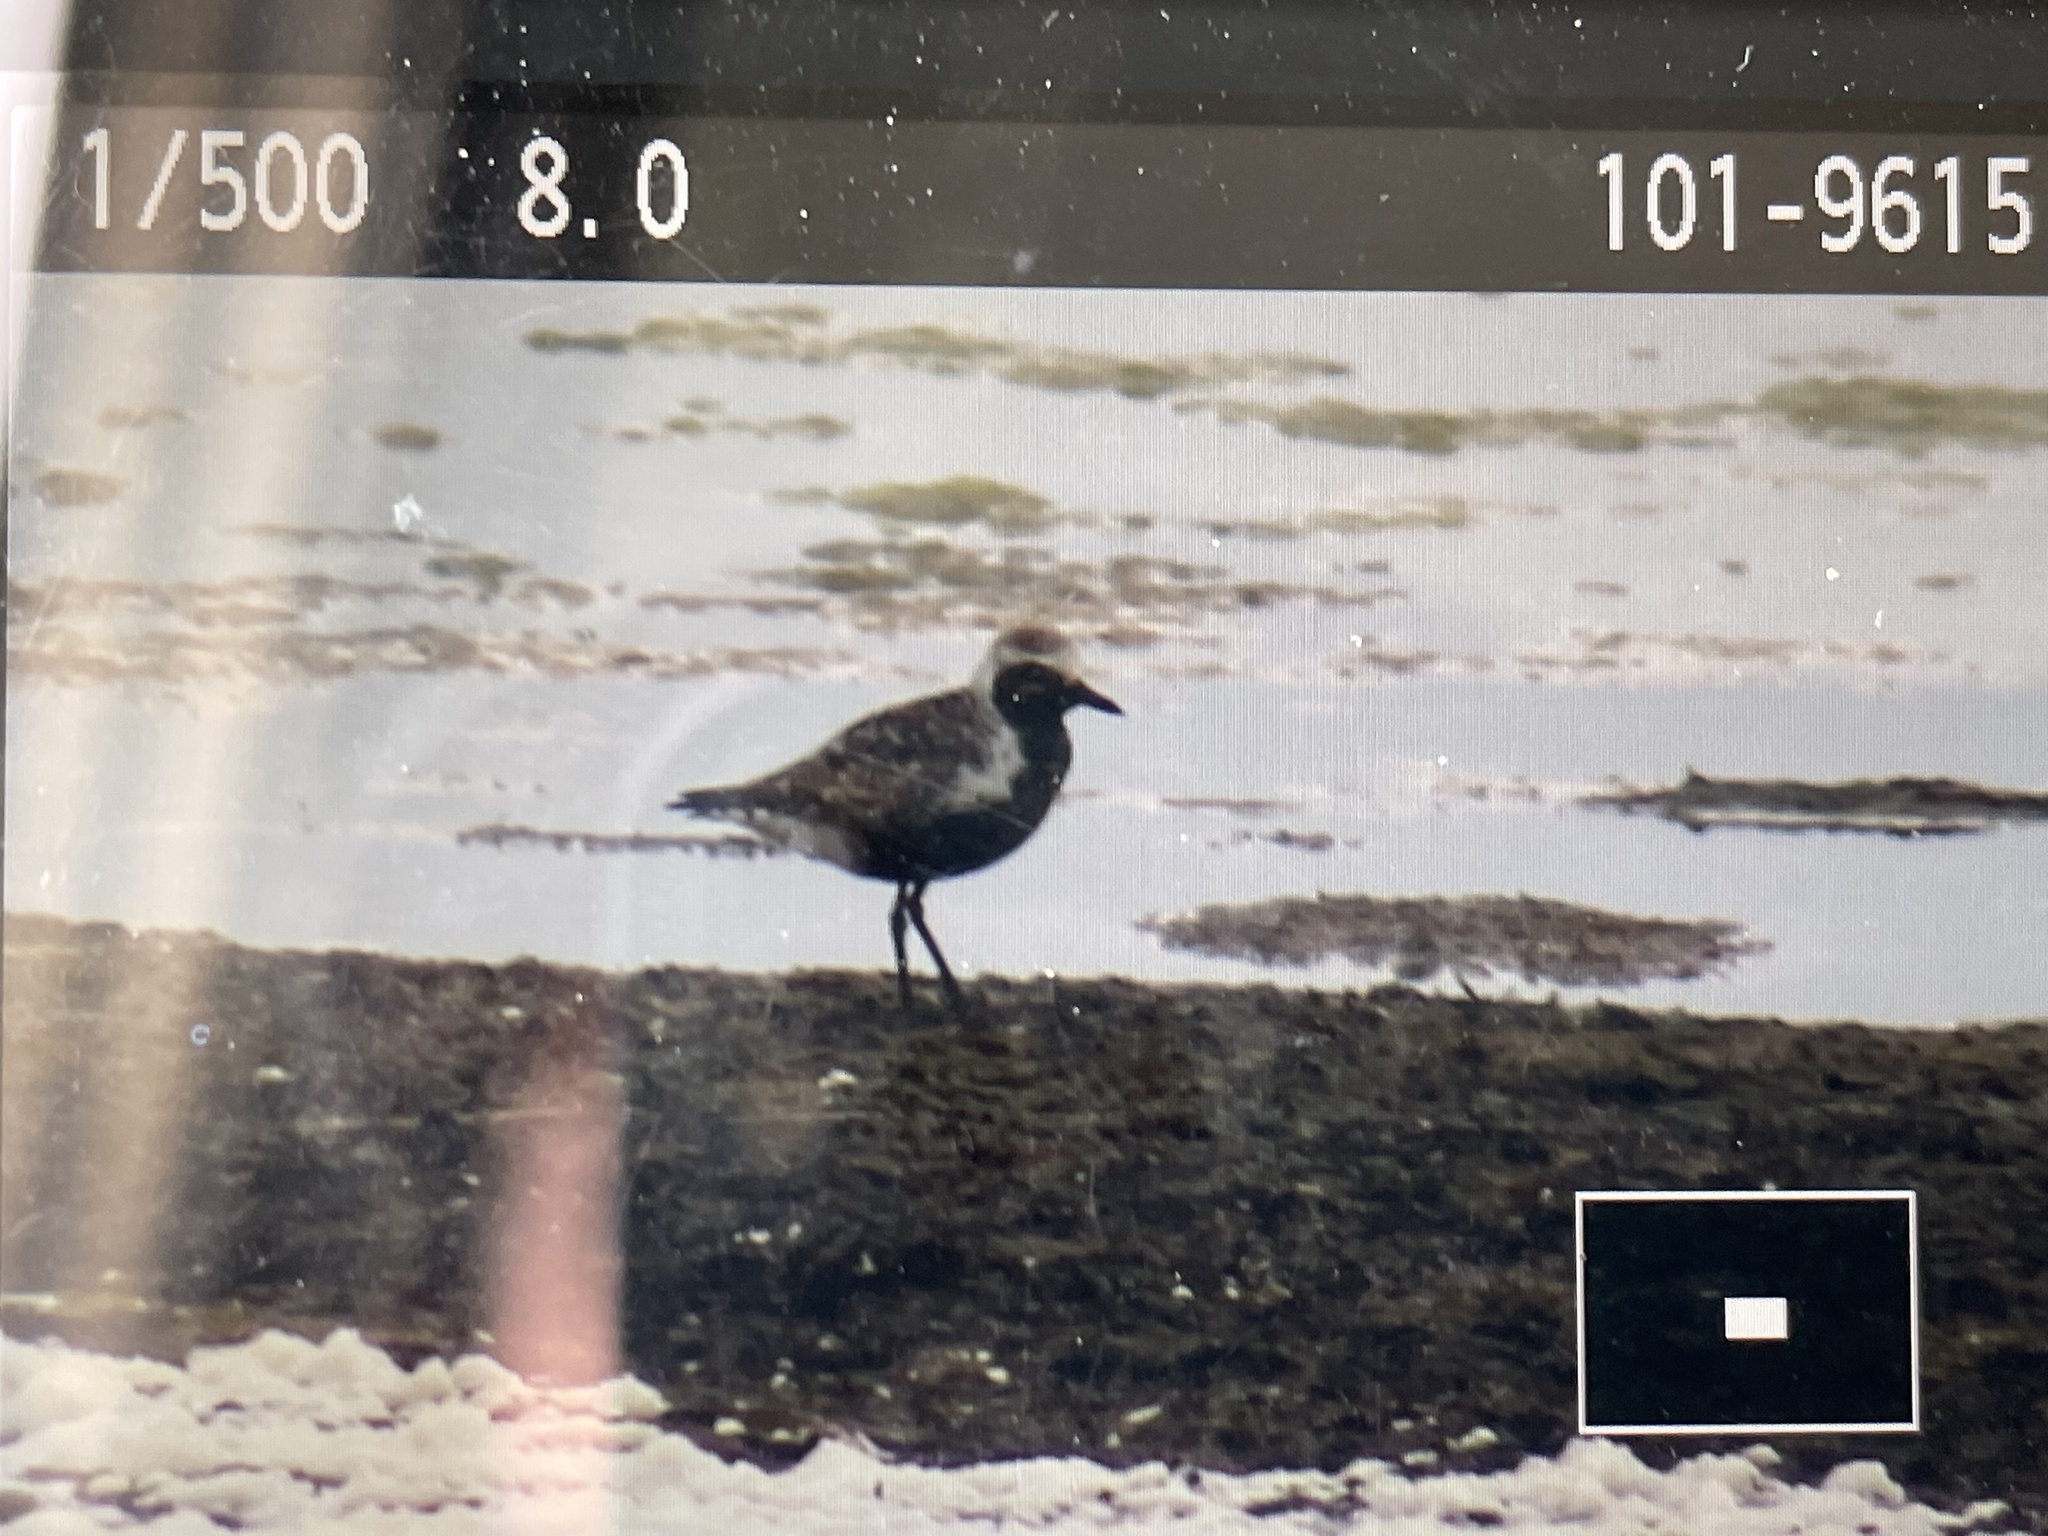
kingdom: Animalia
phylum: Chordata
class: Aves
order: Charadriiformes
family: Charadriidae
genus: Pluvialis
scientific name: Pluvialis squatarola
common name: Grey plover
